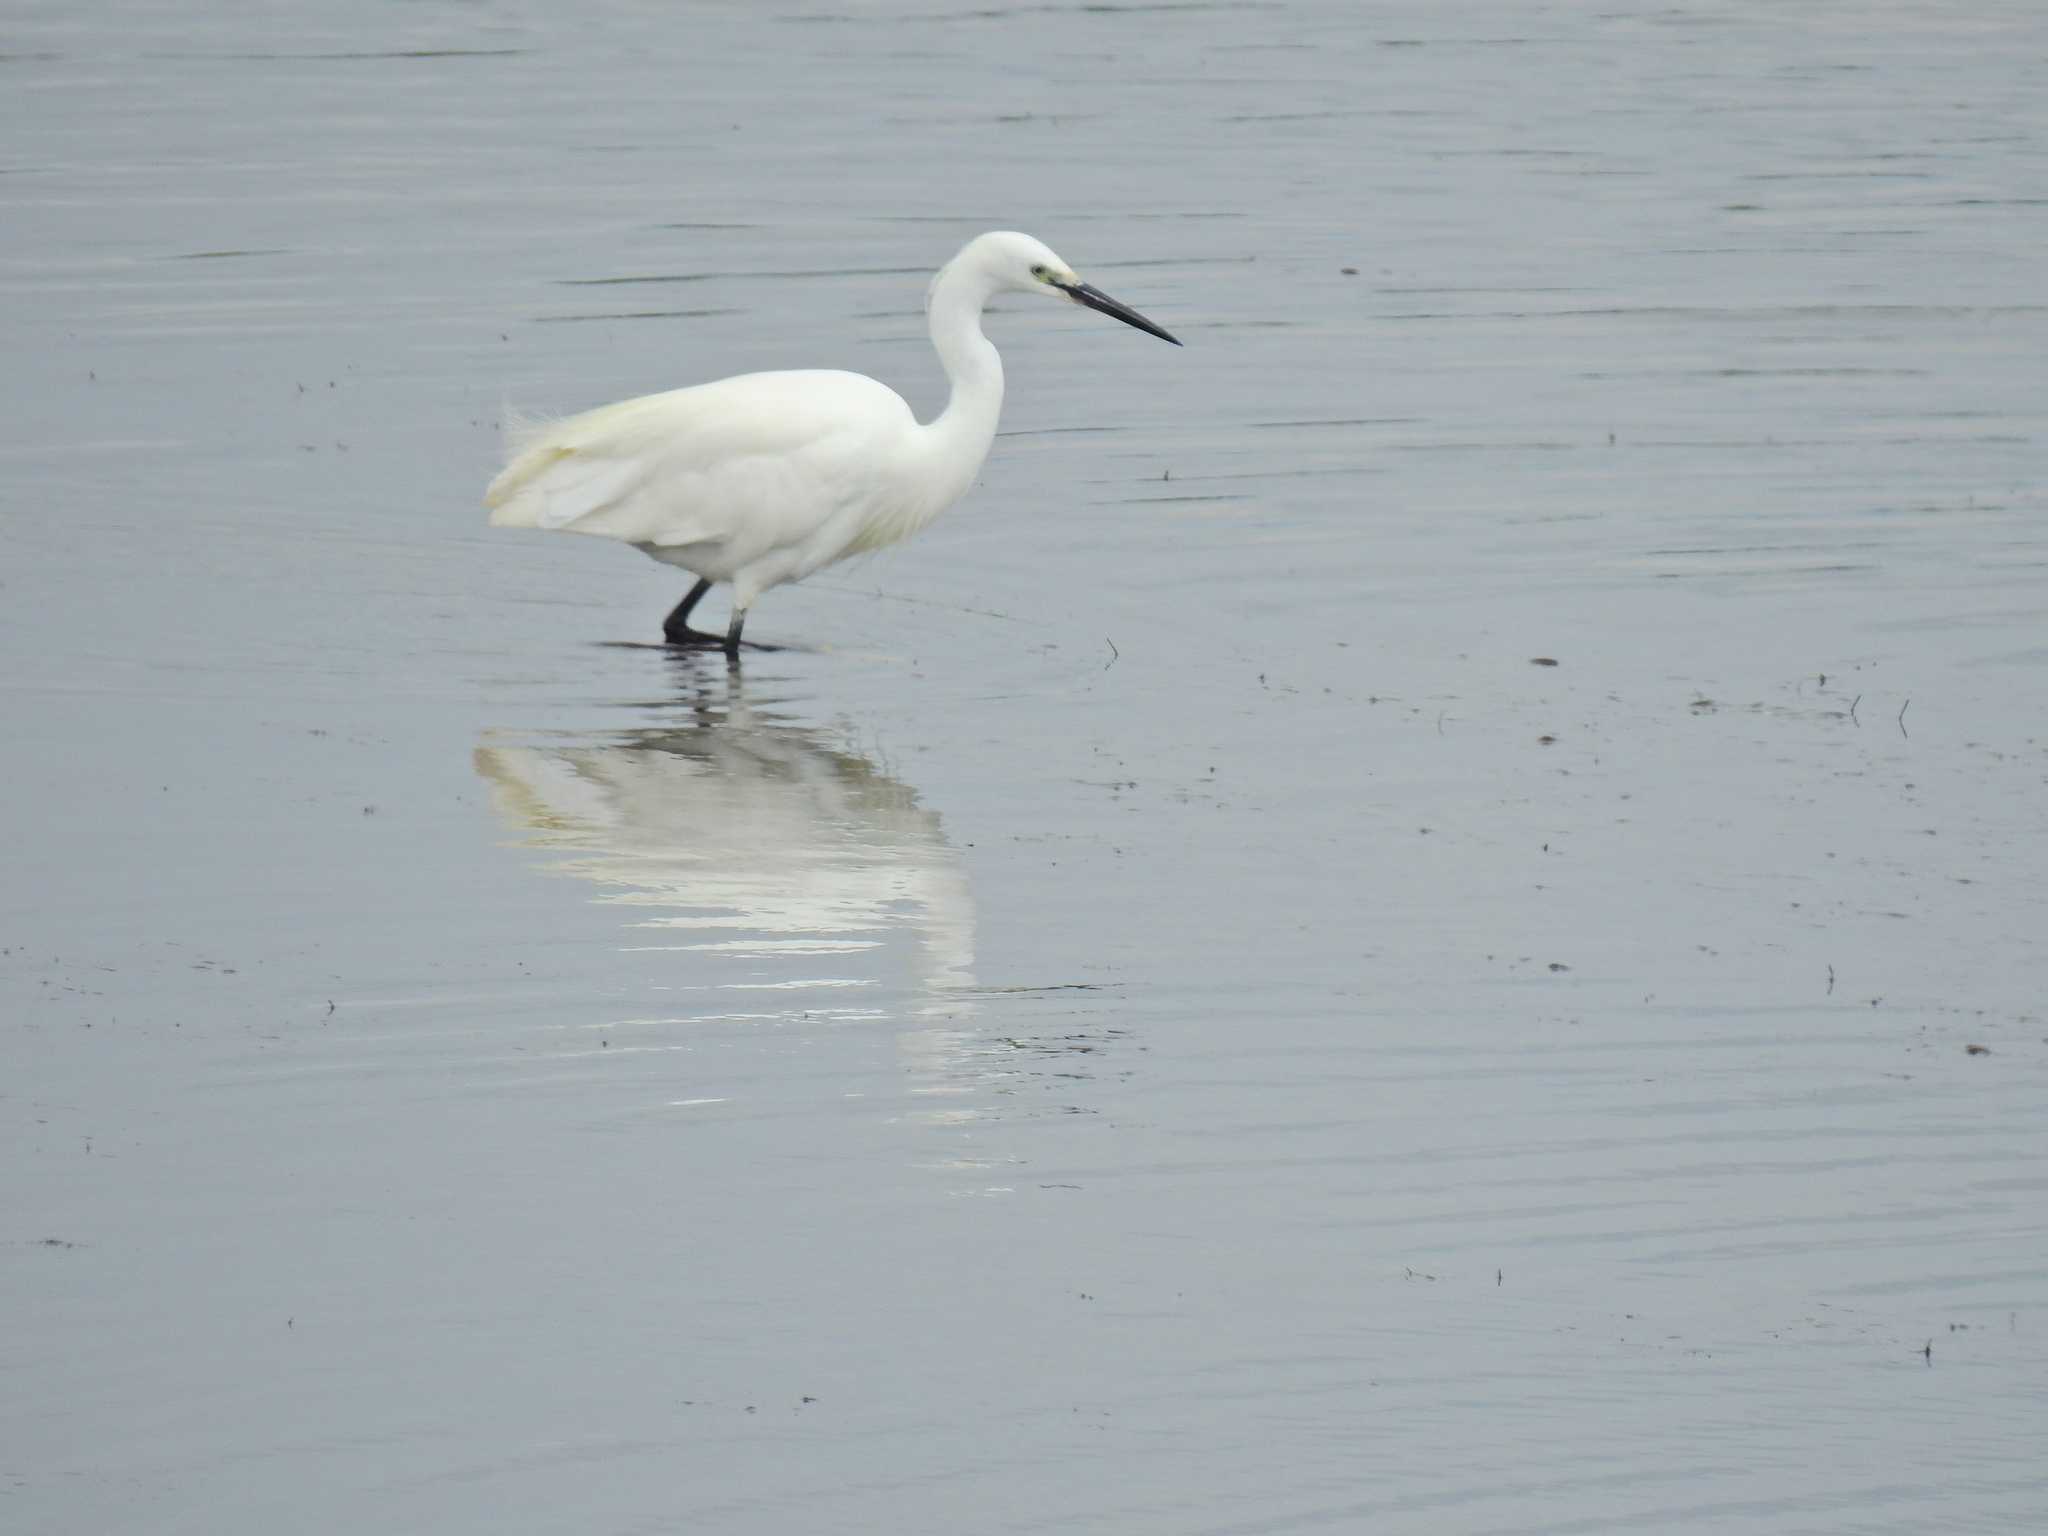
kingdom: Animalia
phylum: Chordata
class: Aves
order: Pelecaniformes
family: Ardeidae
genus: Egretta
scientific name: Egretta garzetta
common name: Little egret
